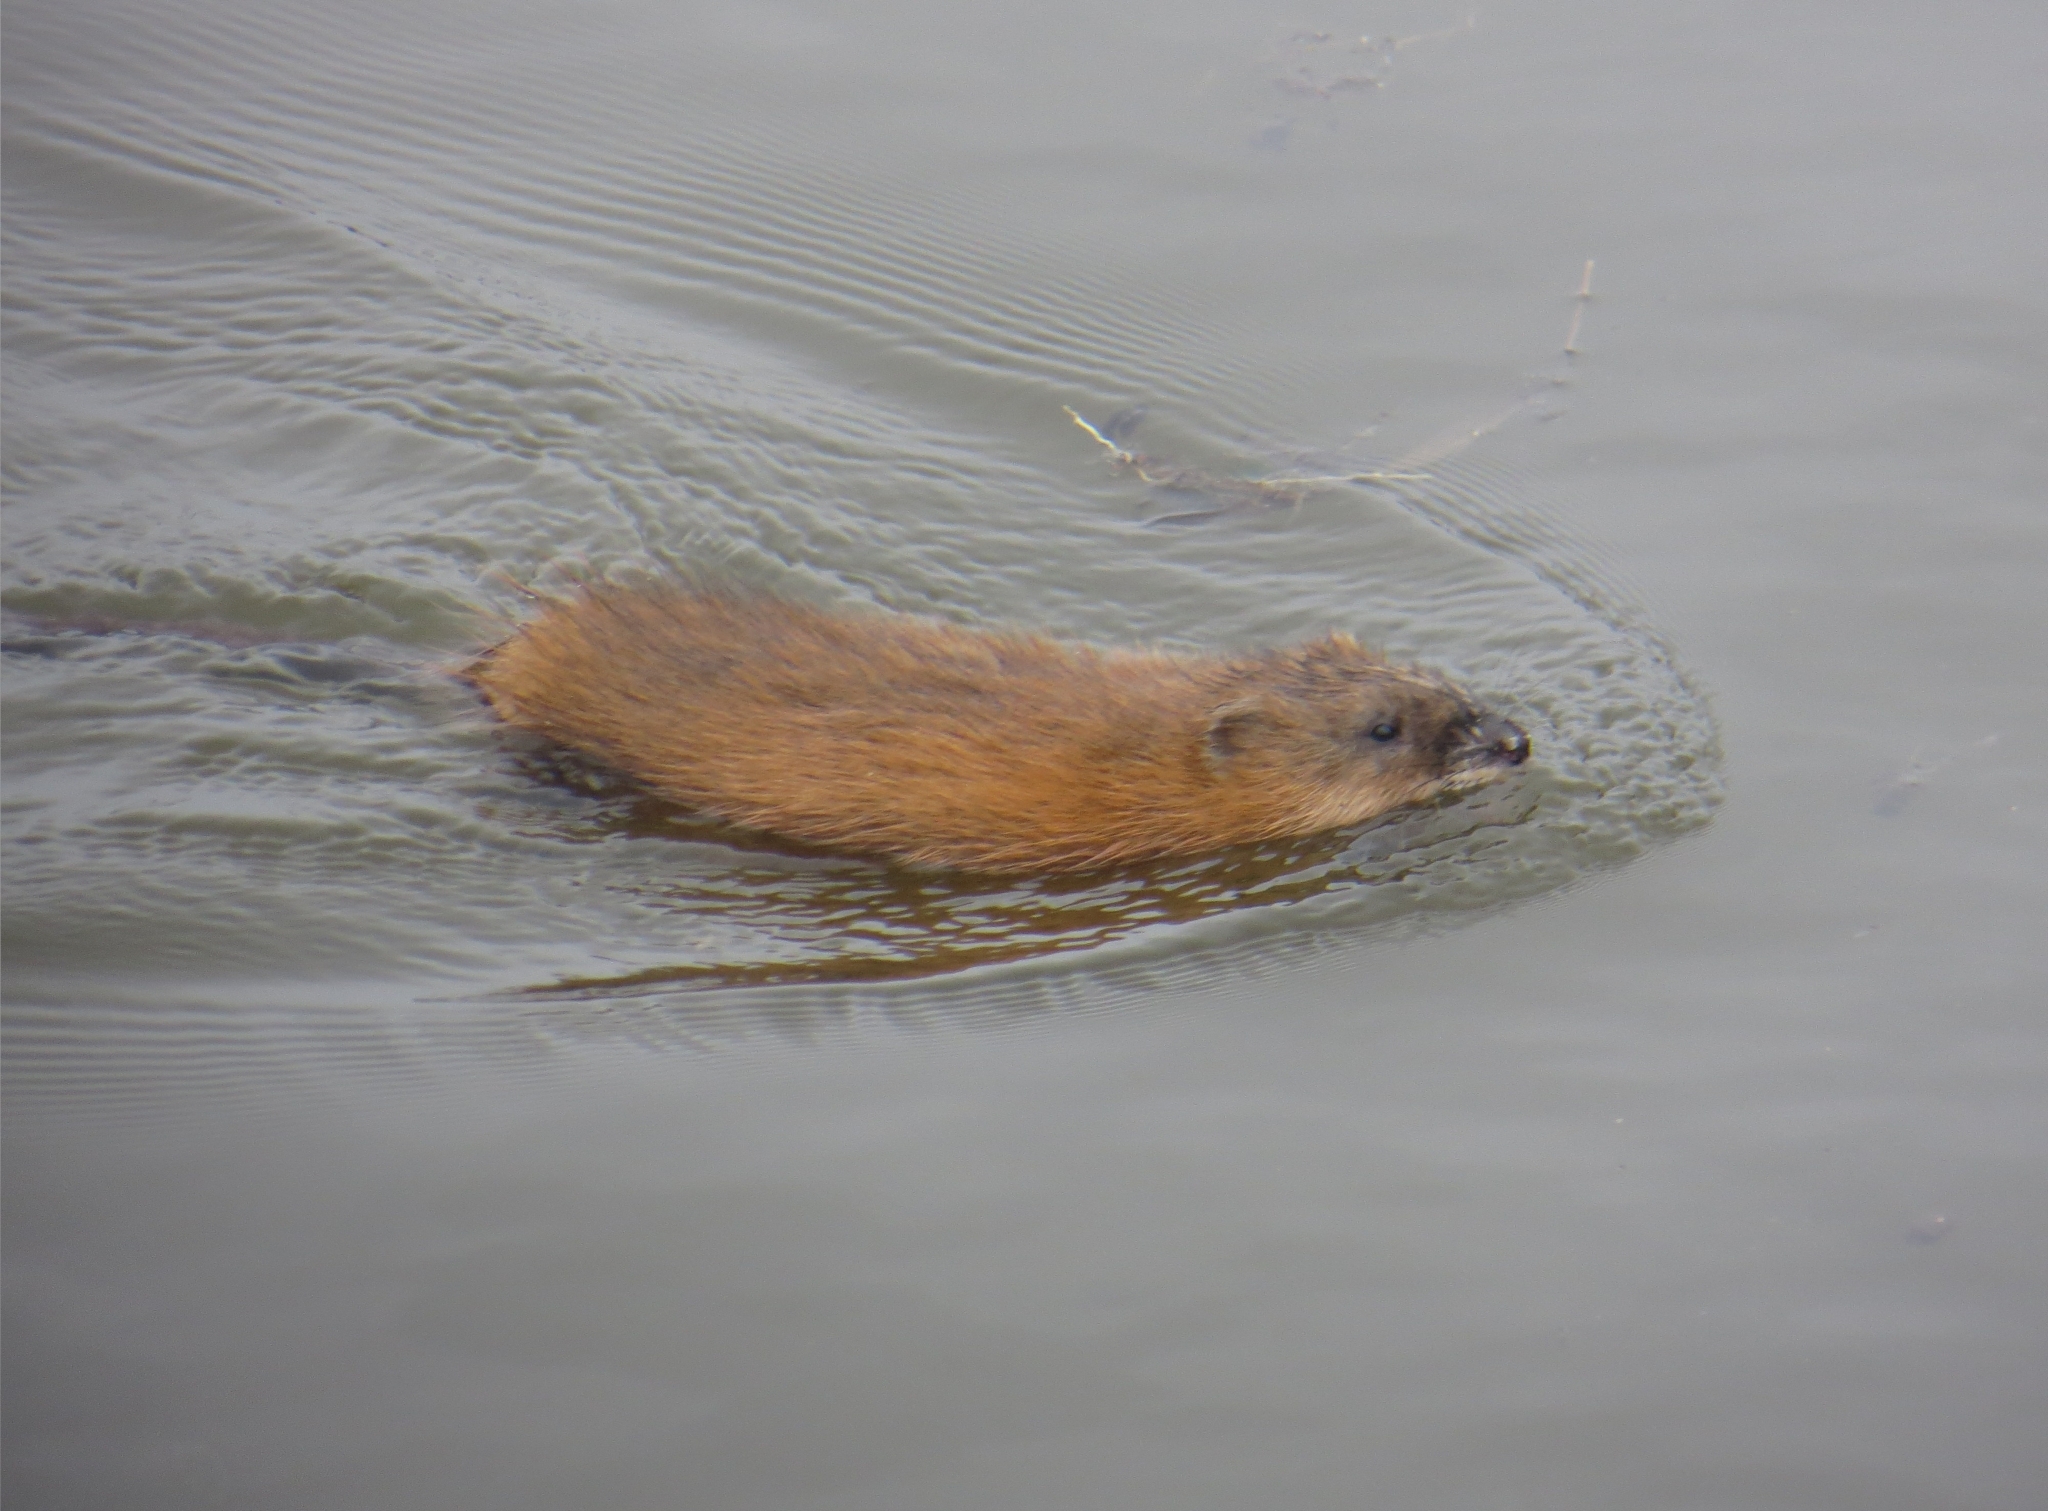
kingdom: Animalia
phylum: Chordata
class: Mammalia
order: Rodentia
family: Cricetidae
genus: Ondatra
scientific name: Ondatra zibethicus
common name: Muskrat
